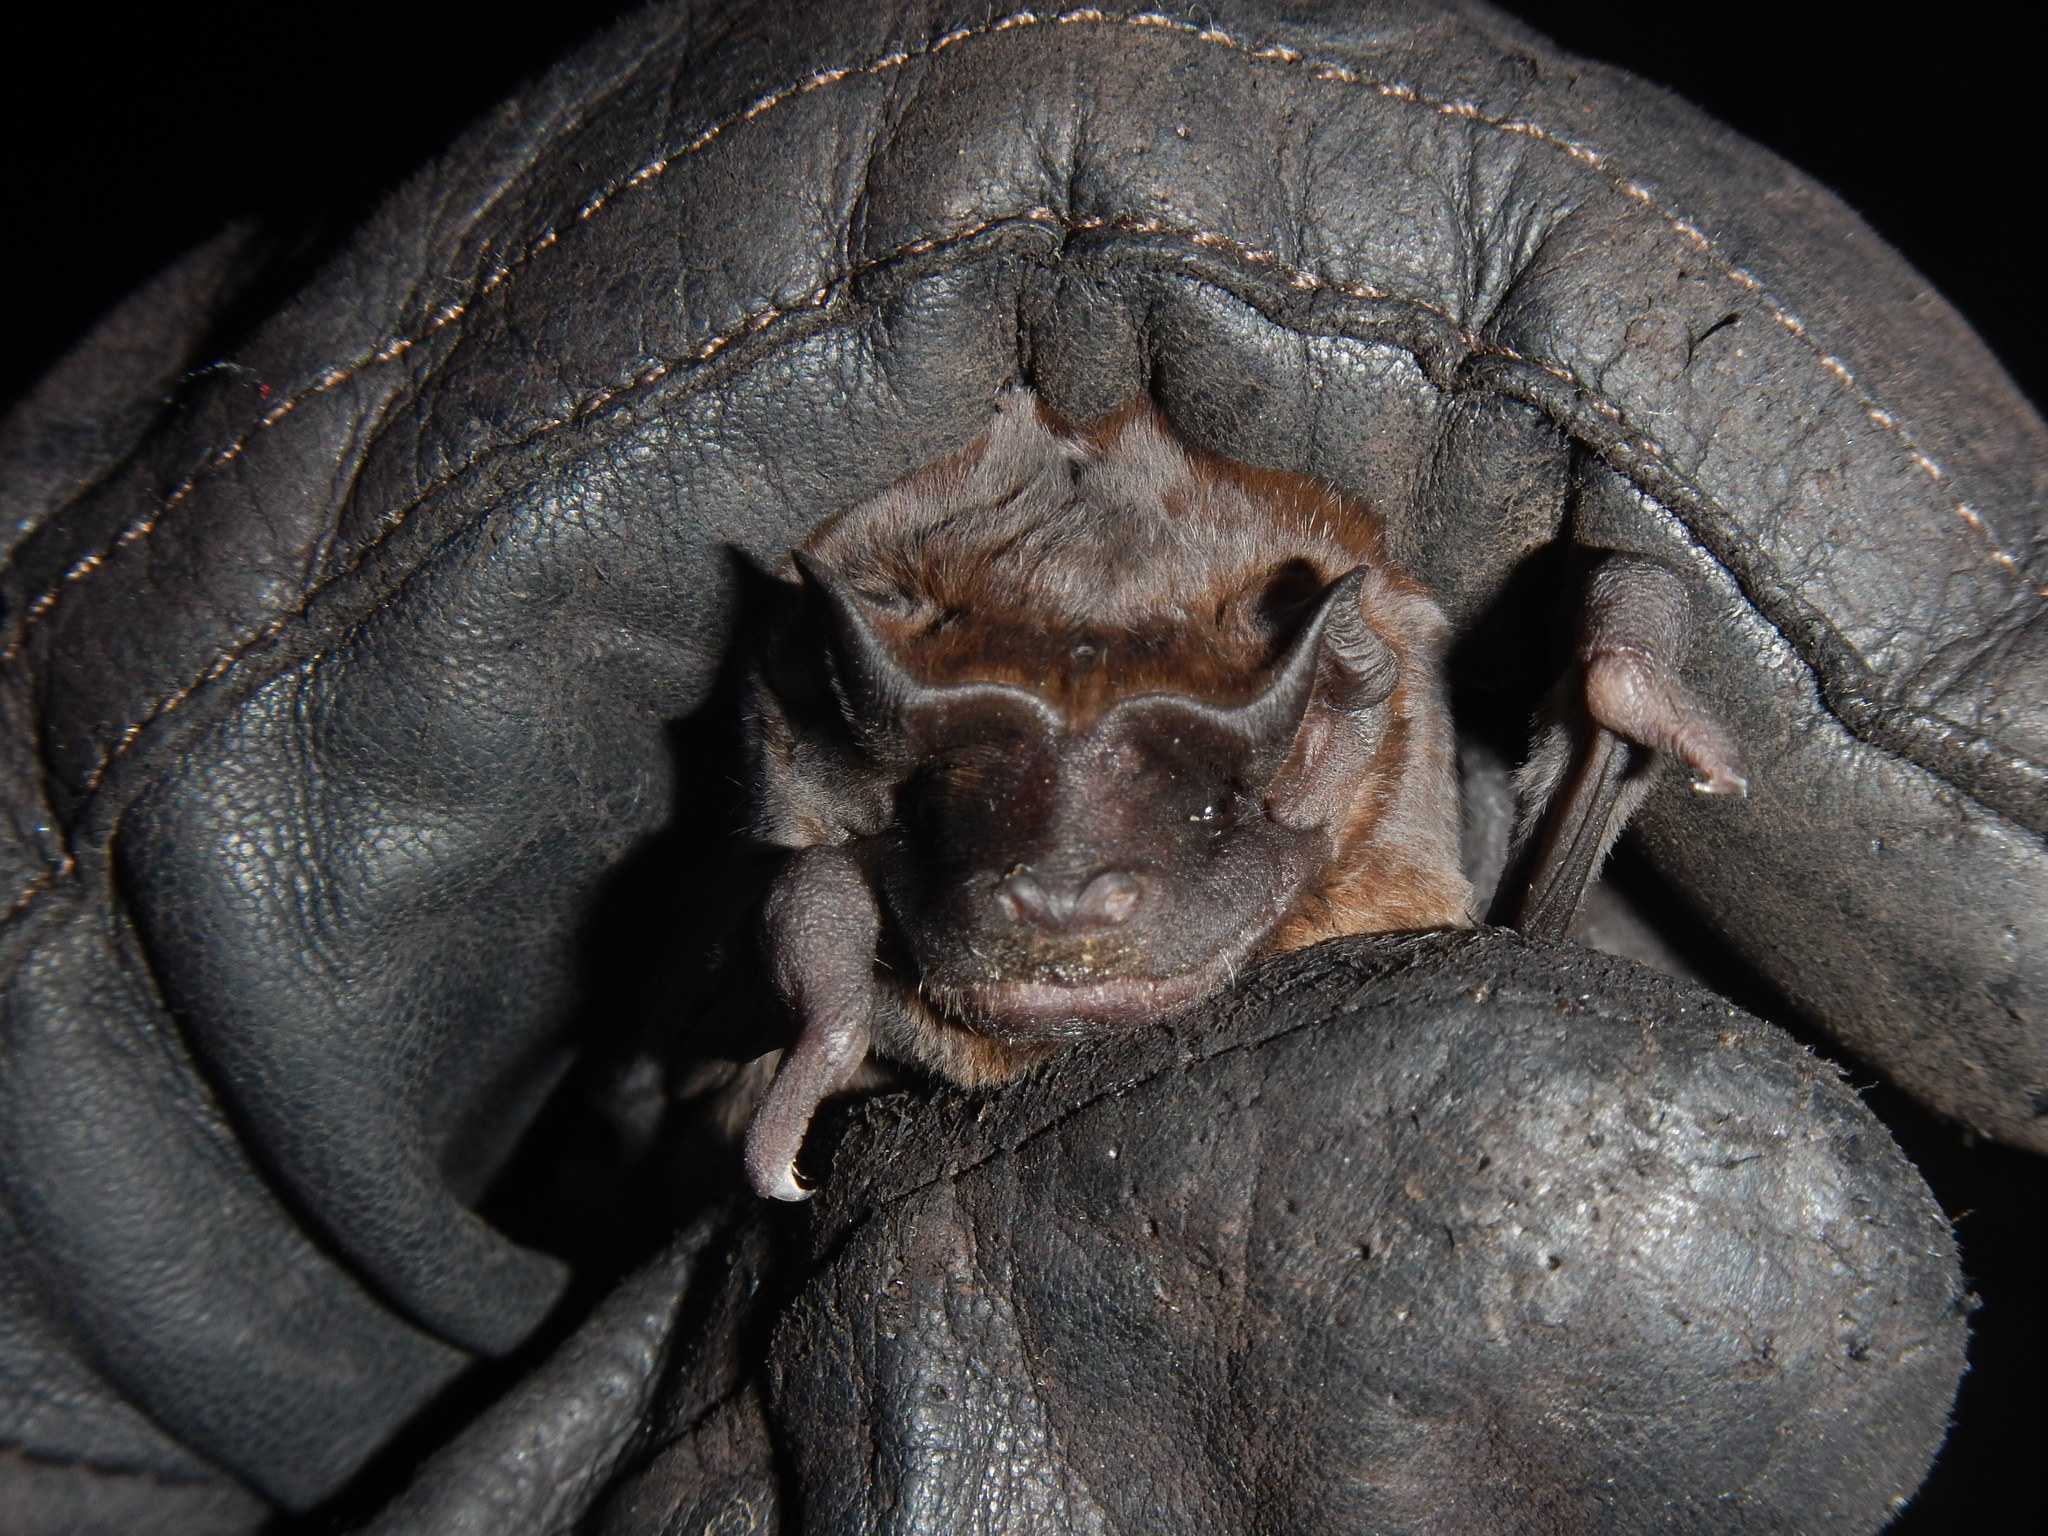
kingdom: Animalia
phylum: Chordata
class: Mammalia
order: Chiroptera
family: Molossidae
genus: Molossus
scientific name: Molossus molossus
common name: Pallas's mastiff bat
